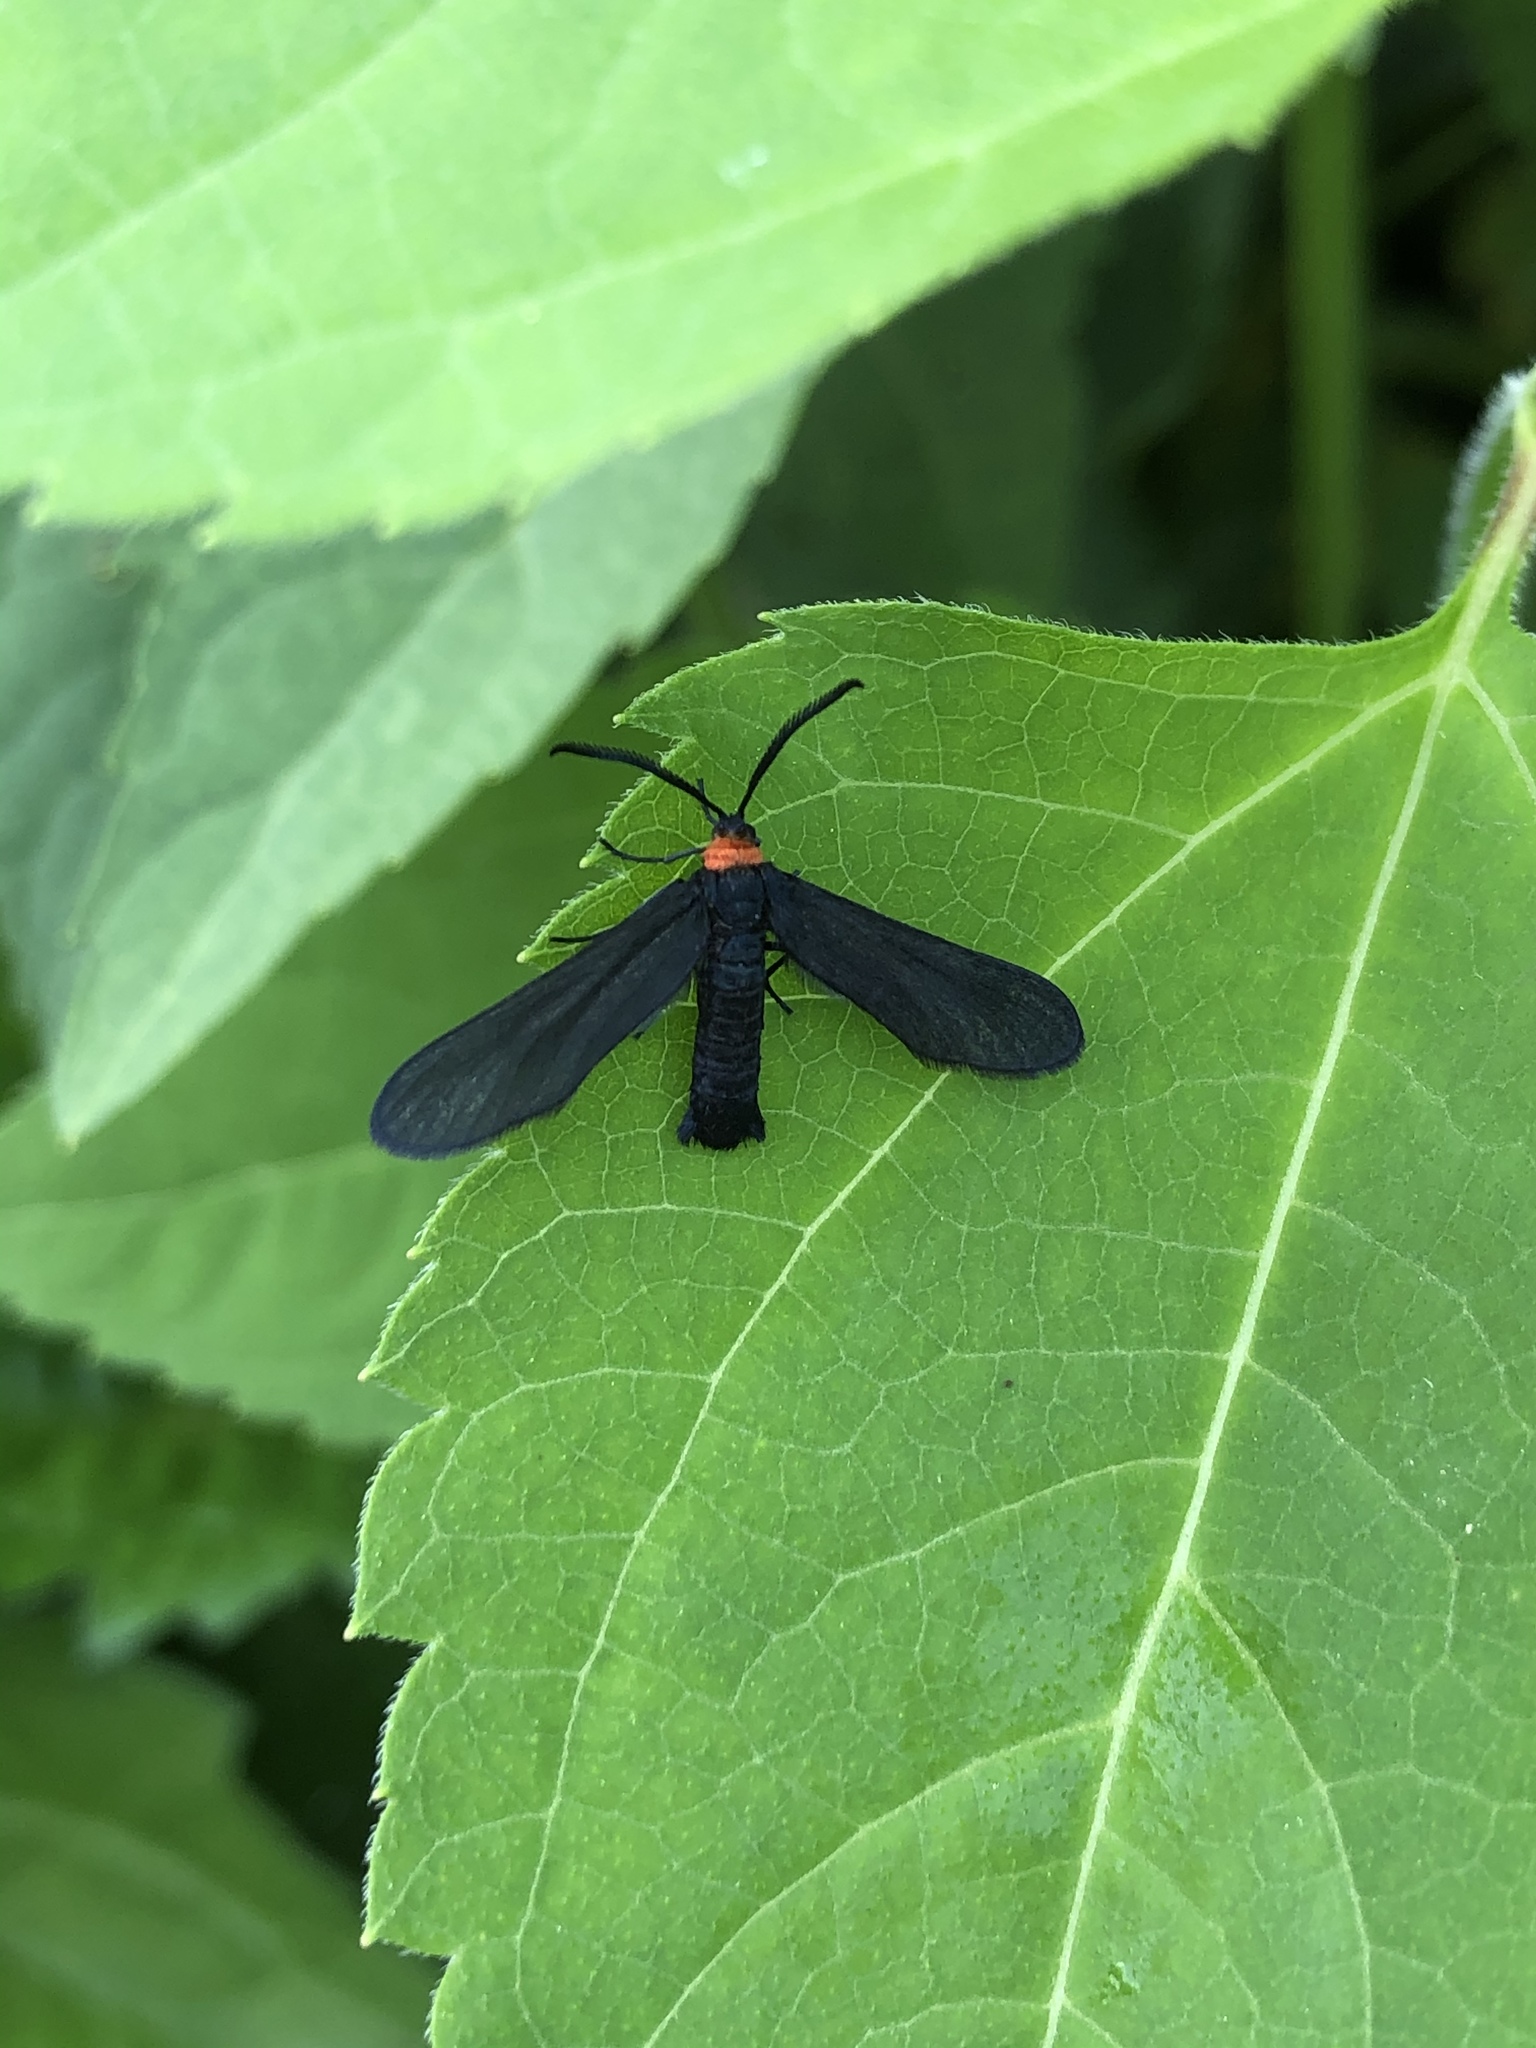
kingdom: Animalia
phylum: Arthropoda
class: Insecta
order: Lepidoptera
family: Zygaenidae
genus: Harrisina
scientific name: Harrisina americana
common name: Grapeleaf skeletonizer moth
